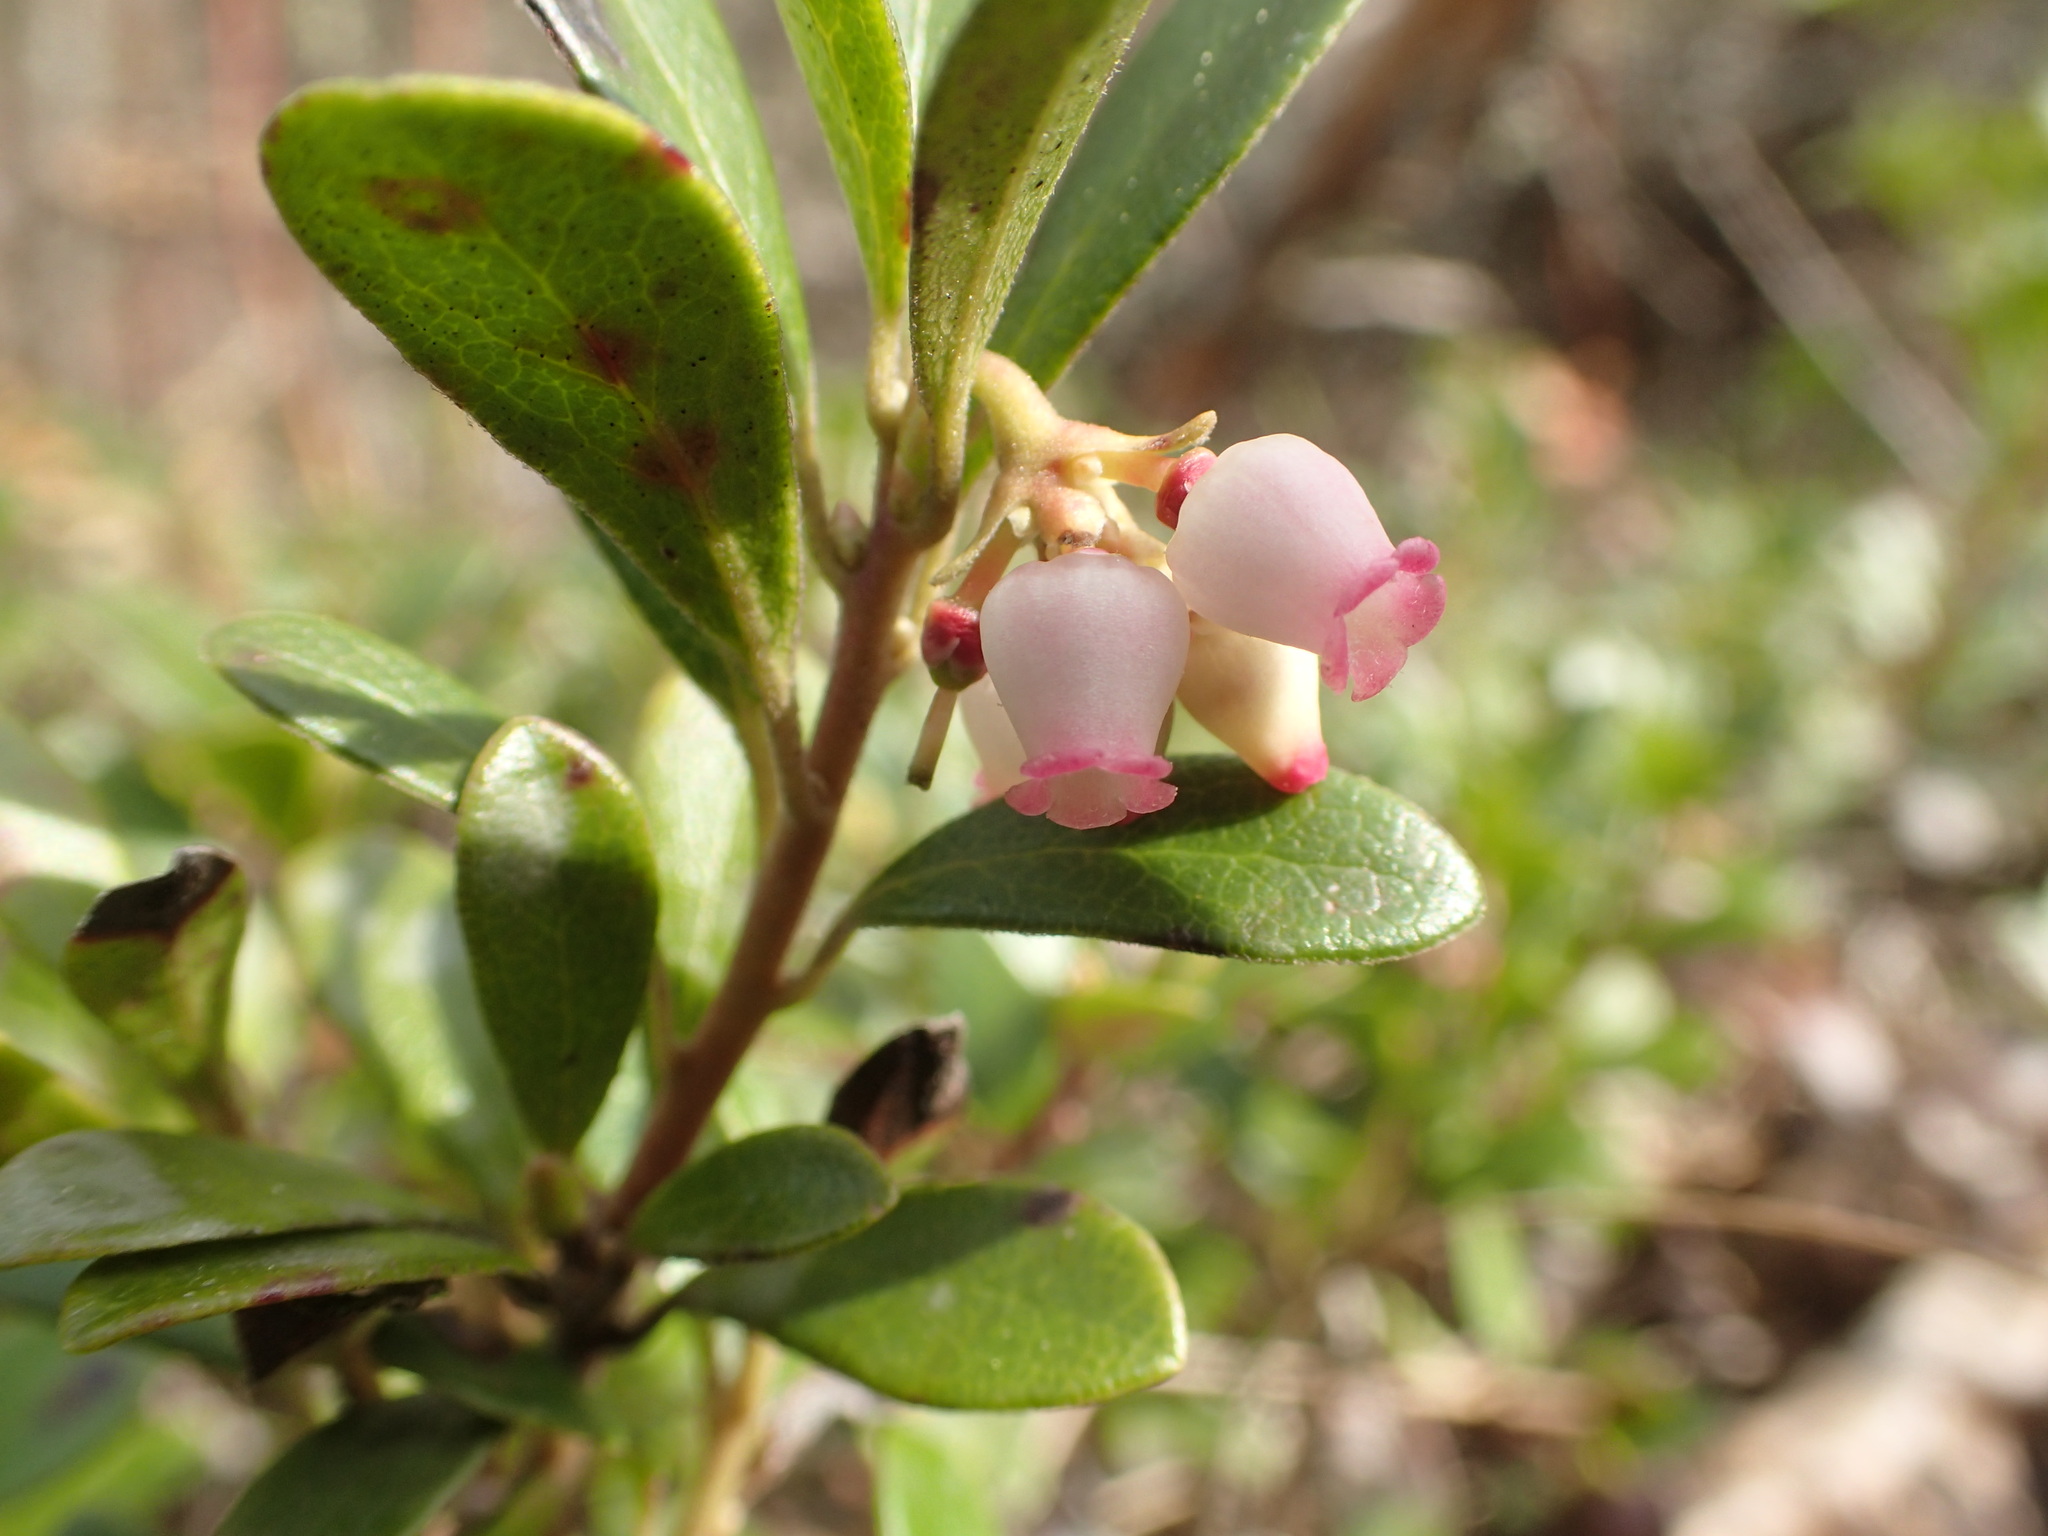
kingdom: Plantae
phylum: Tracheophyta
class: Magnoliopsida
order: Ericales
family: Ericaceae
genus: Arctostaphylos
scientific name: Arctostaphylos uva-ursi
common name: Bearberry
